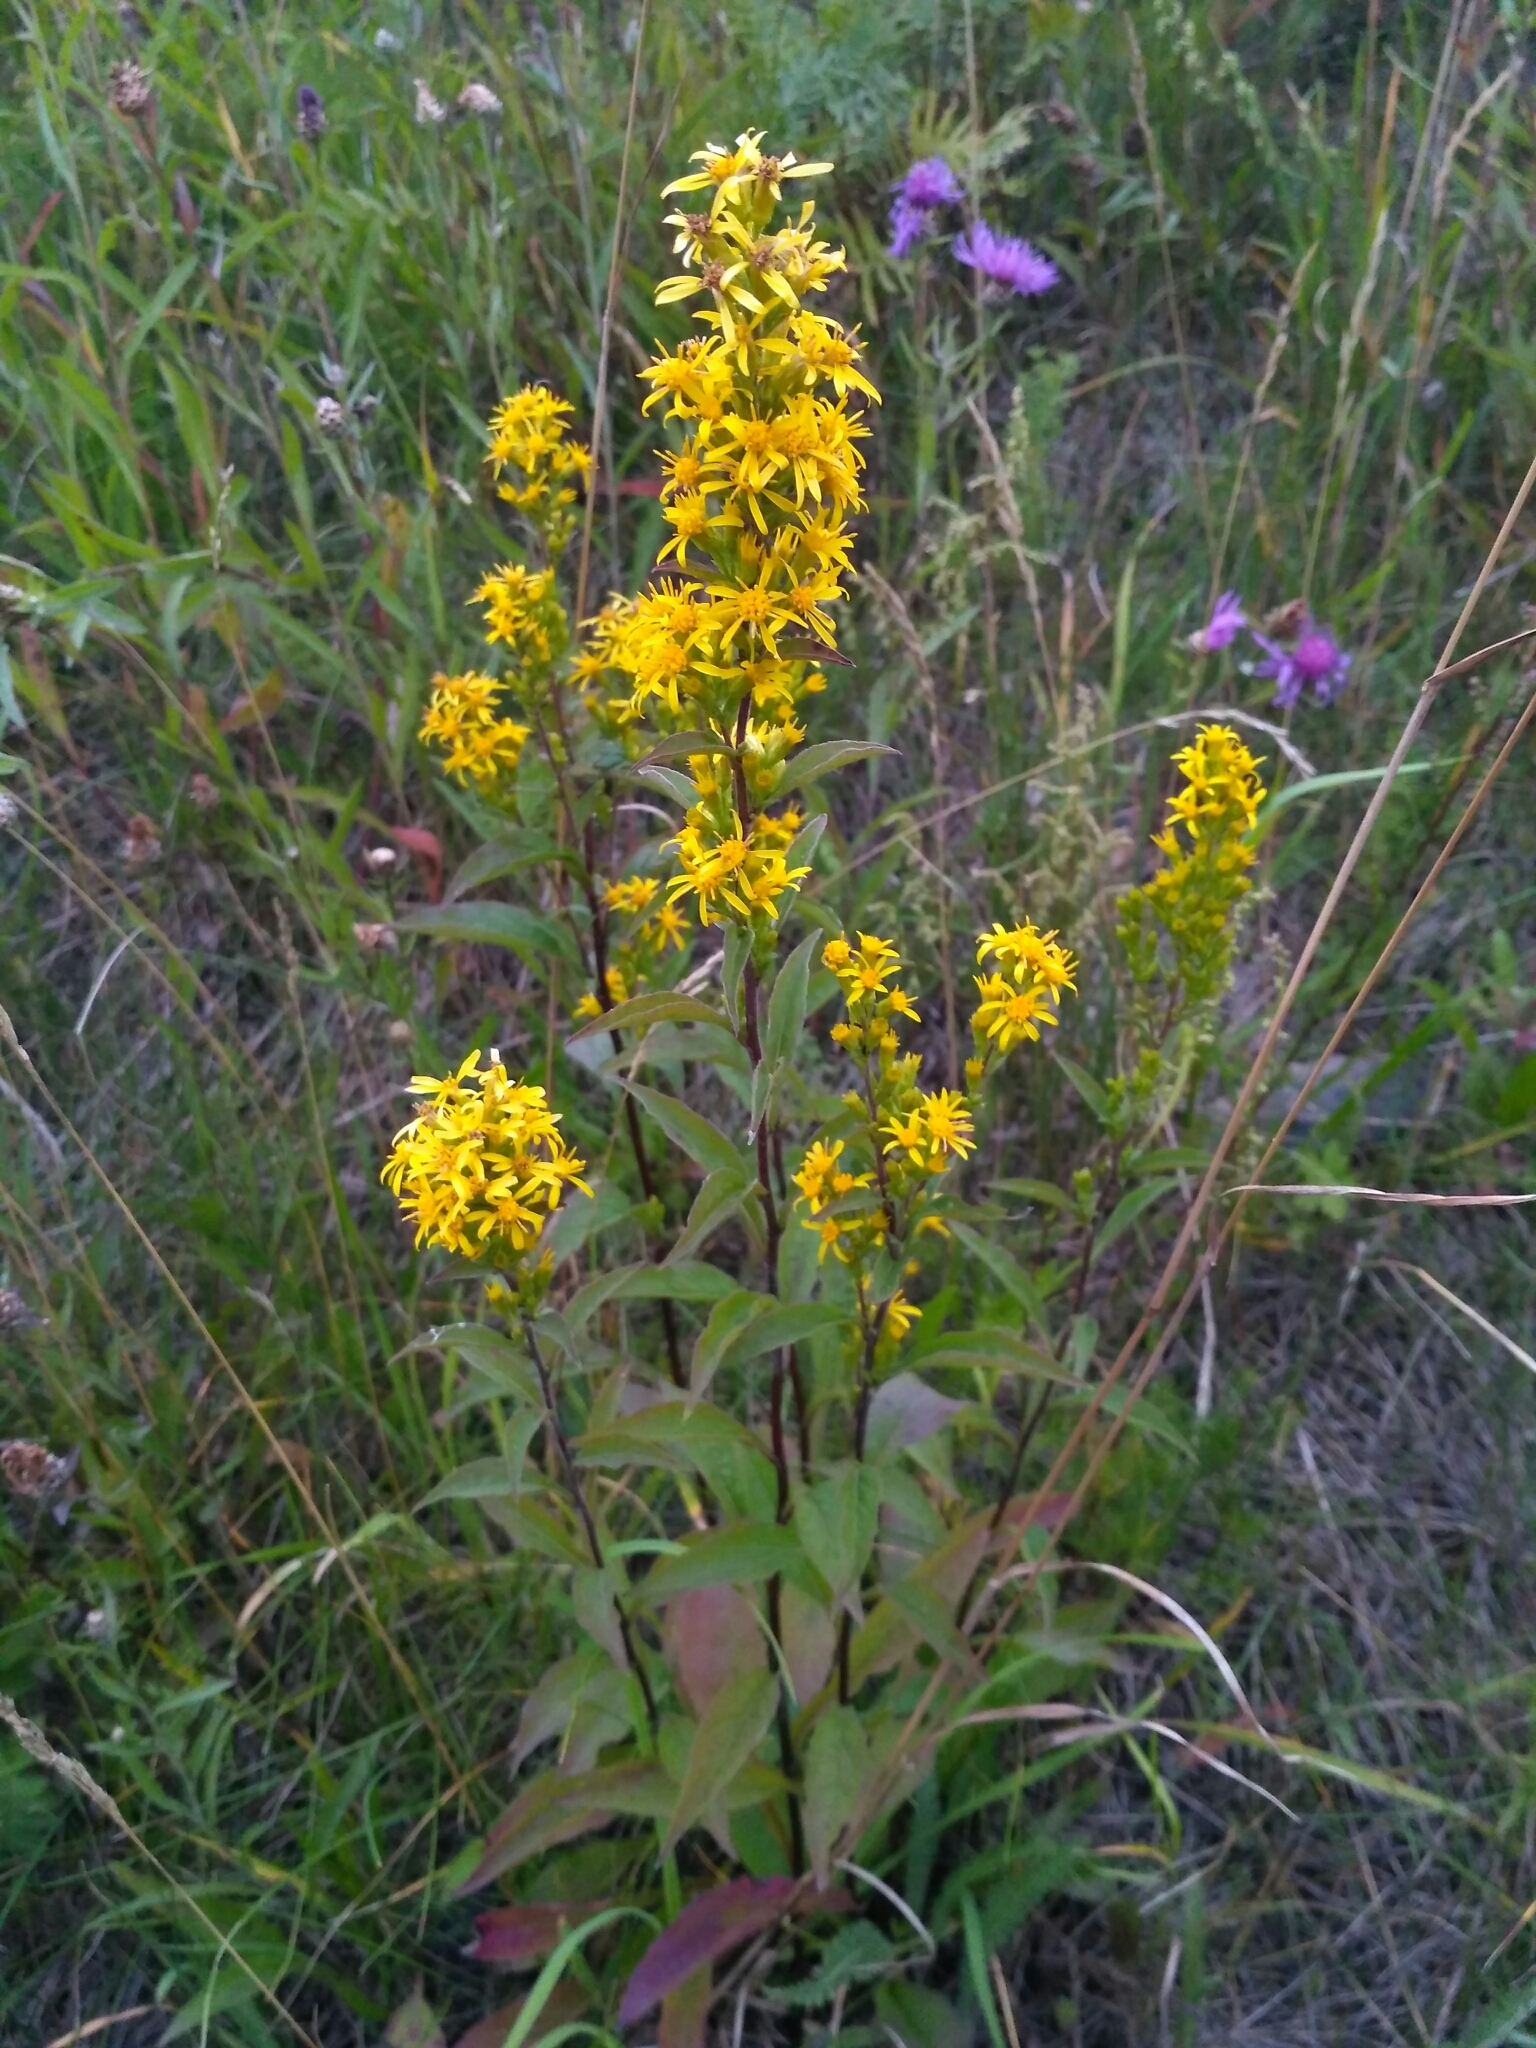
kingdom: Plantae
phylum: Tracheophyta
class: Magnoliopsida
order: Asterales
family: Asteraceae
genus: Solidago
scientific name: Solidago virgaurea
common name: Goldenrod
